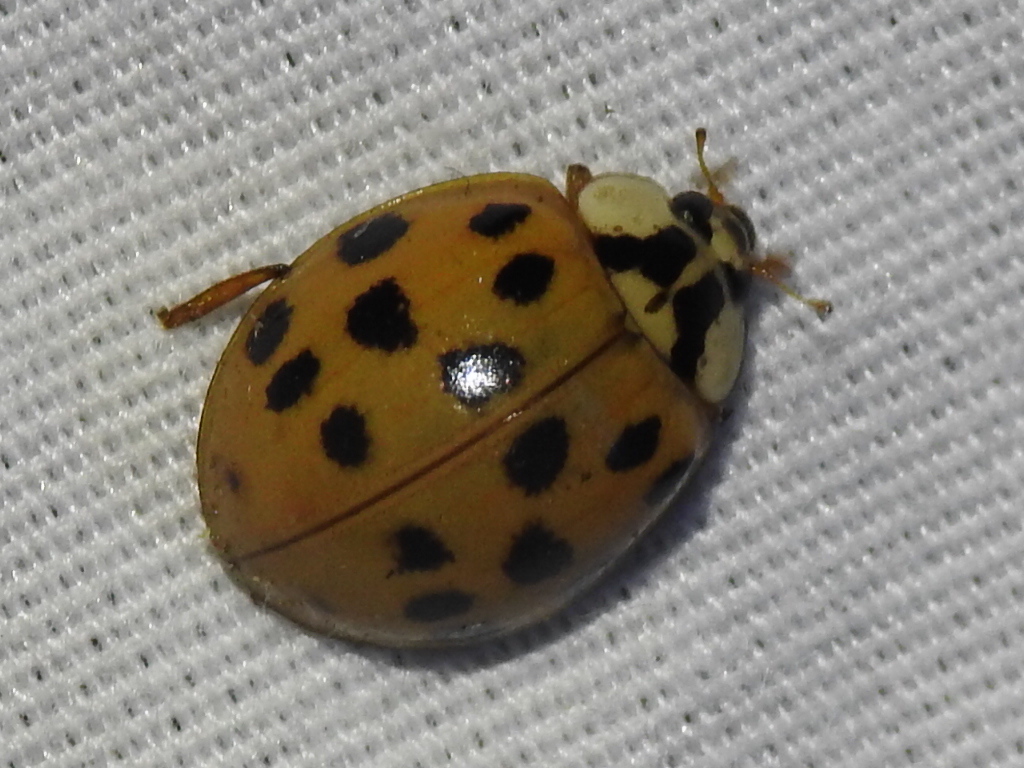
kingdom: Animalia
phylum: Arthropoda
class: Insecta
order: Coleoptera
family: Coccinellidae
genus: Harmonia
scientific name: Harmonia axyridis
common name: Harlequin ladybird
